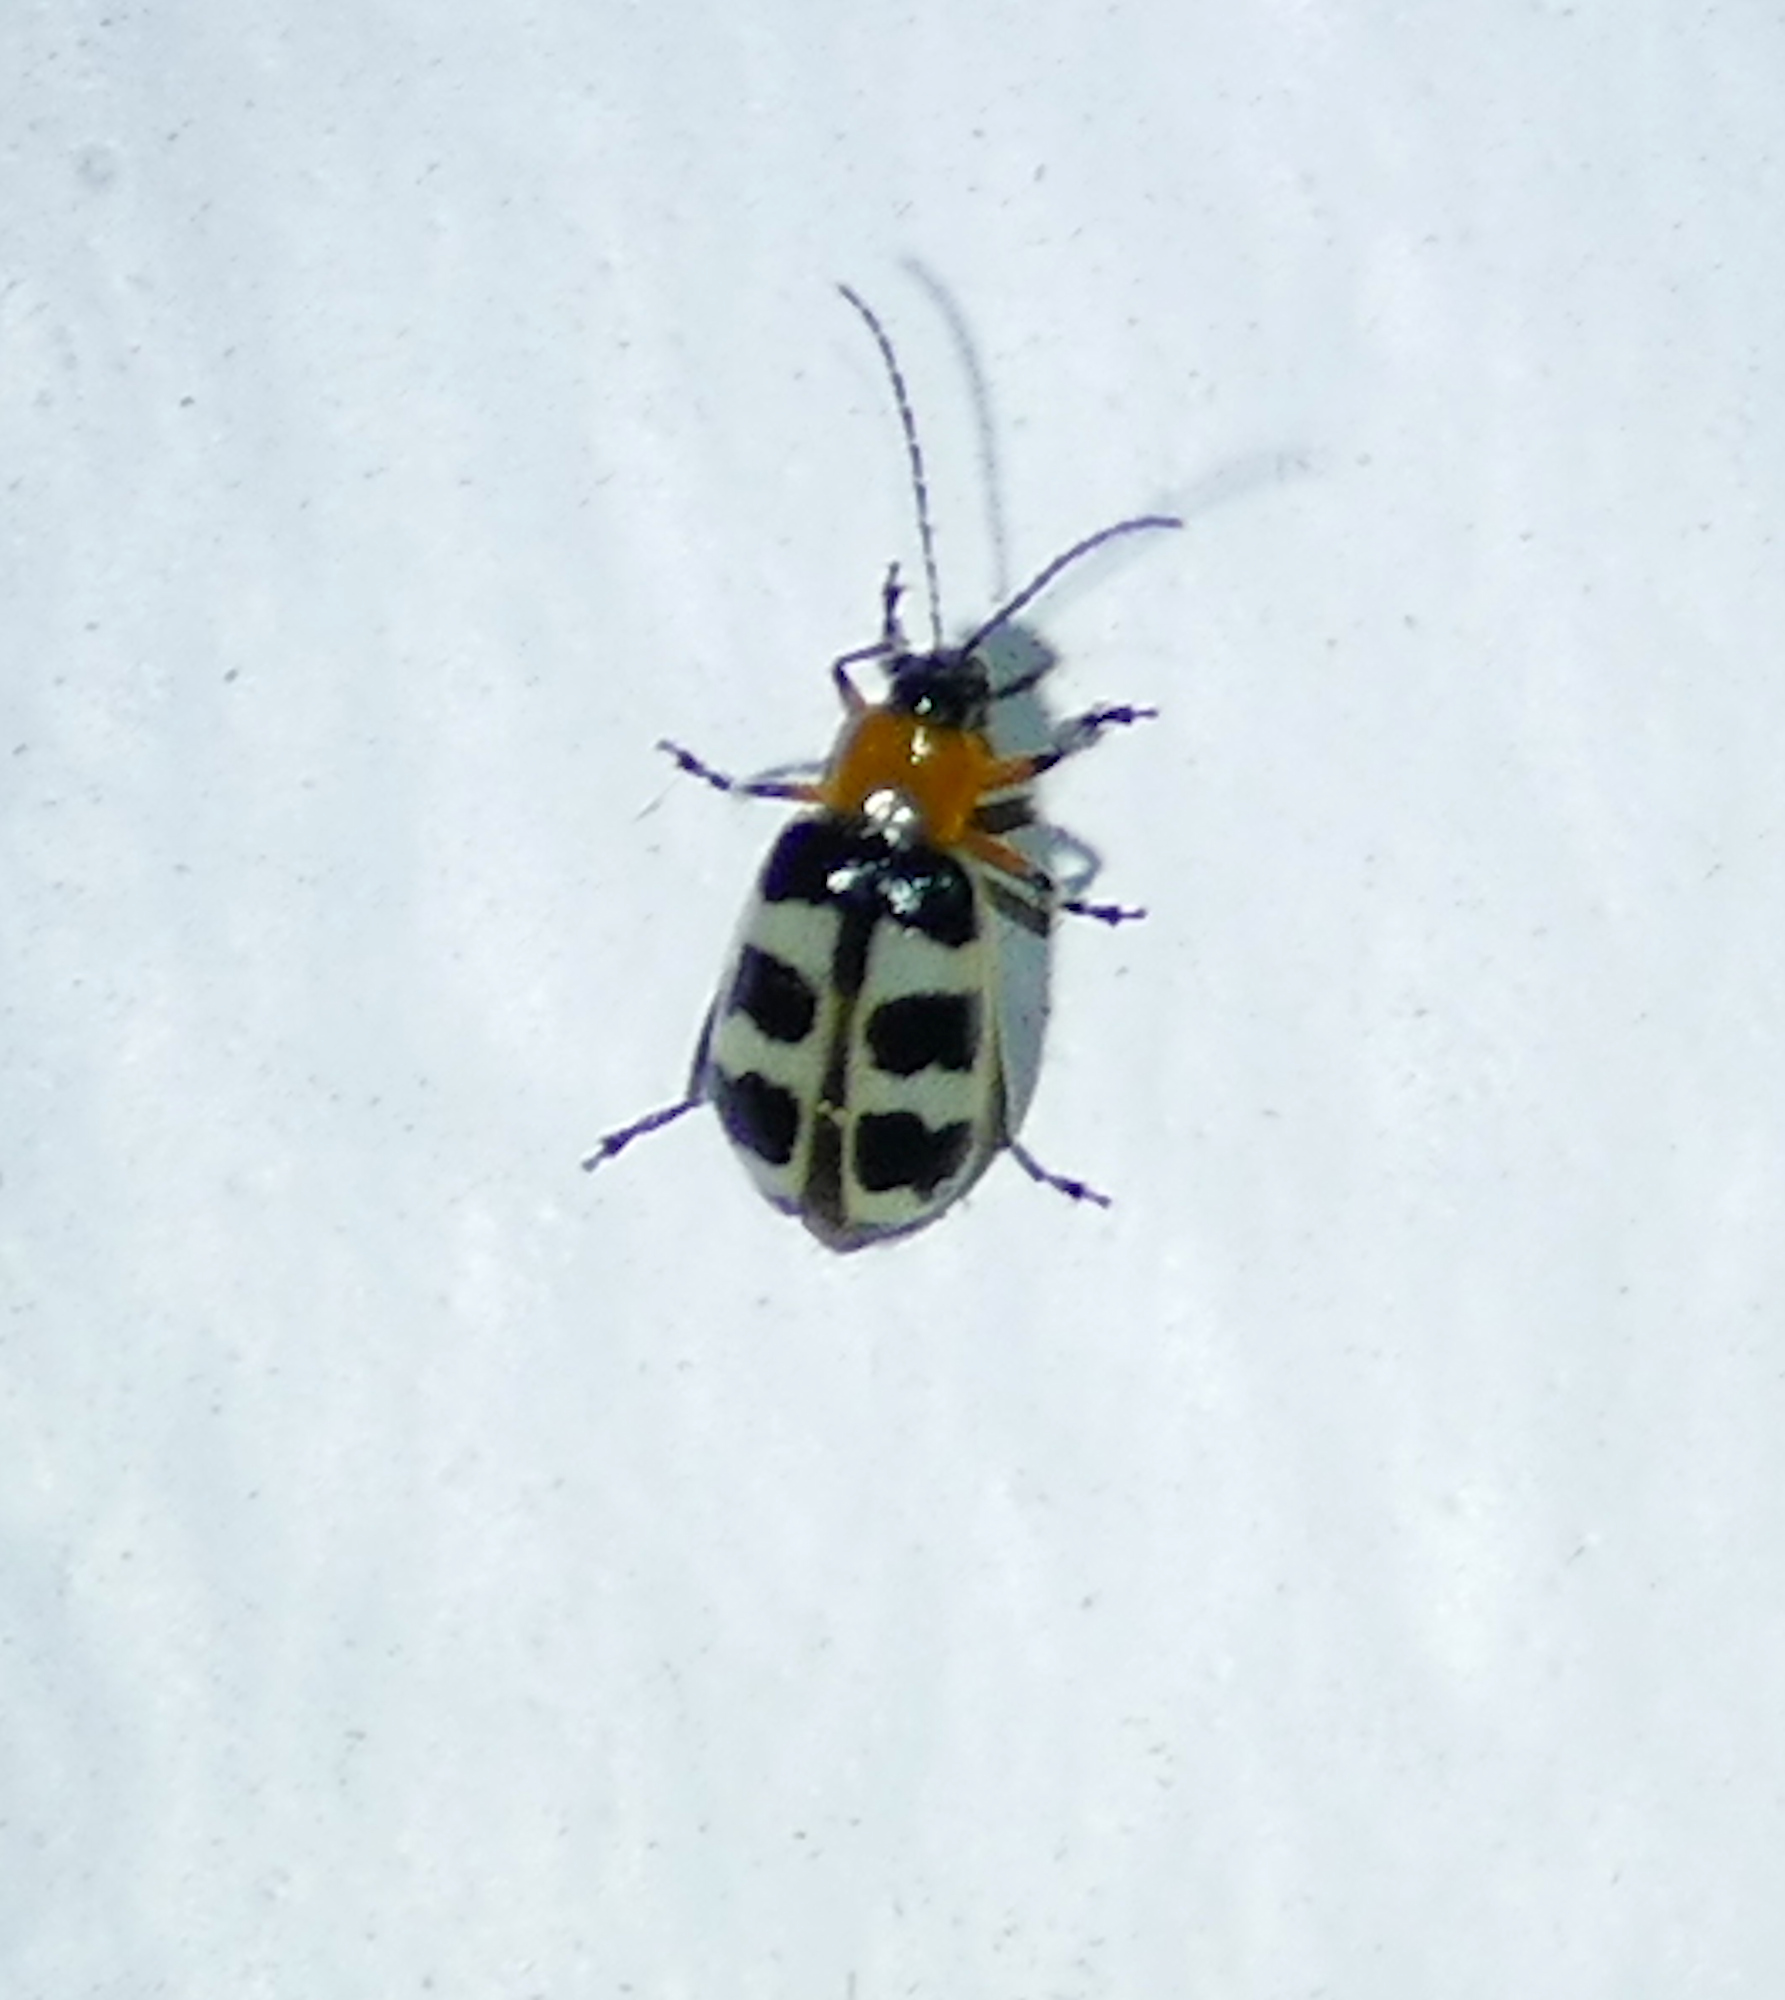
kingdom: Animalia
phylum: Arthropoda
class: Insecta
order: Coleoptera
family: Chrysomelidae
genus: Paranapiacaba
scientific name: Paranapiacaba tricincta
